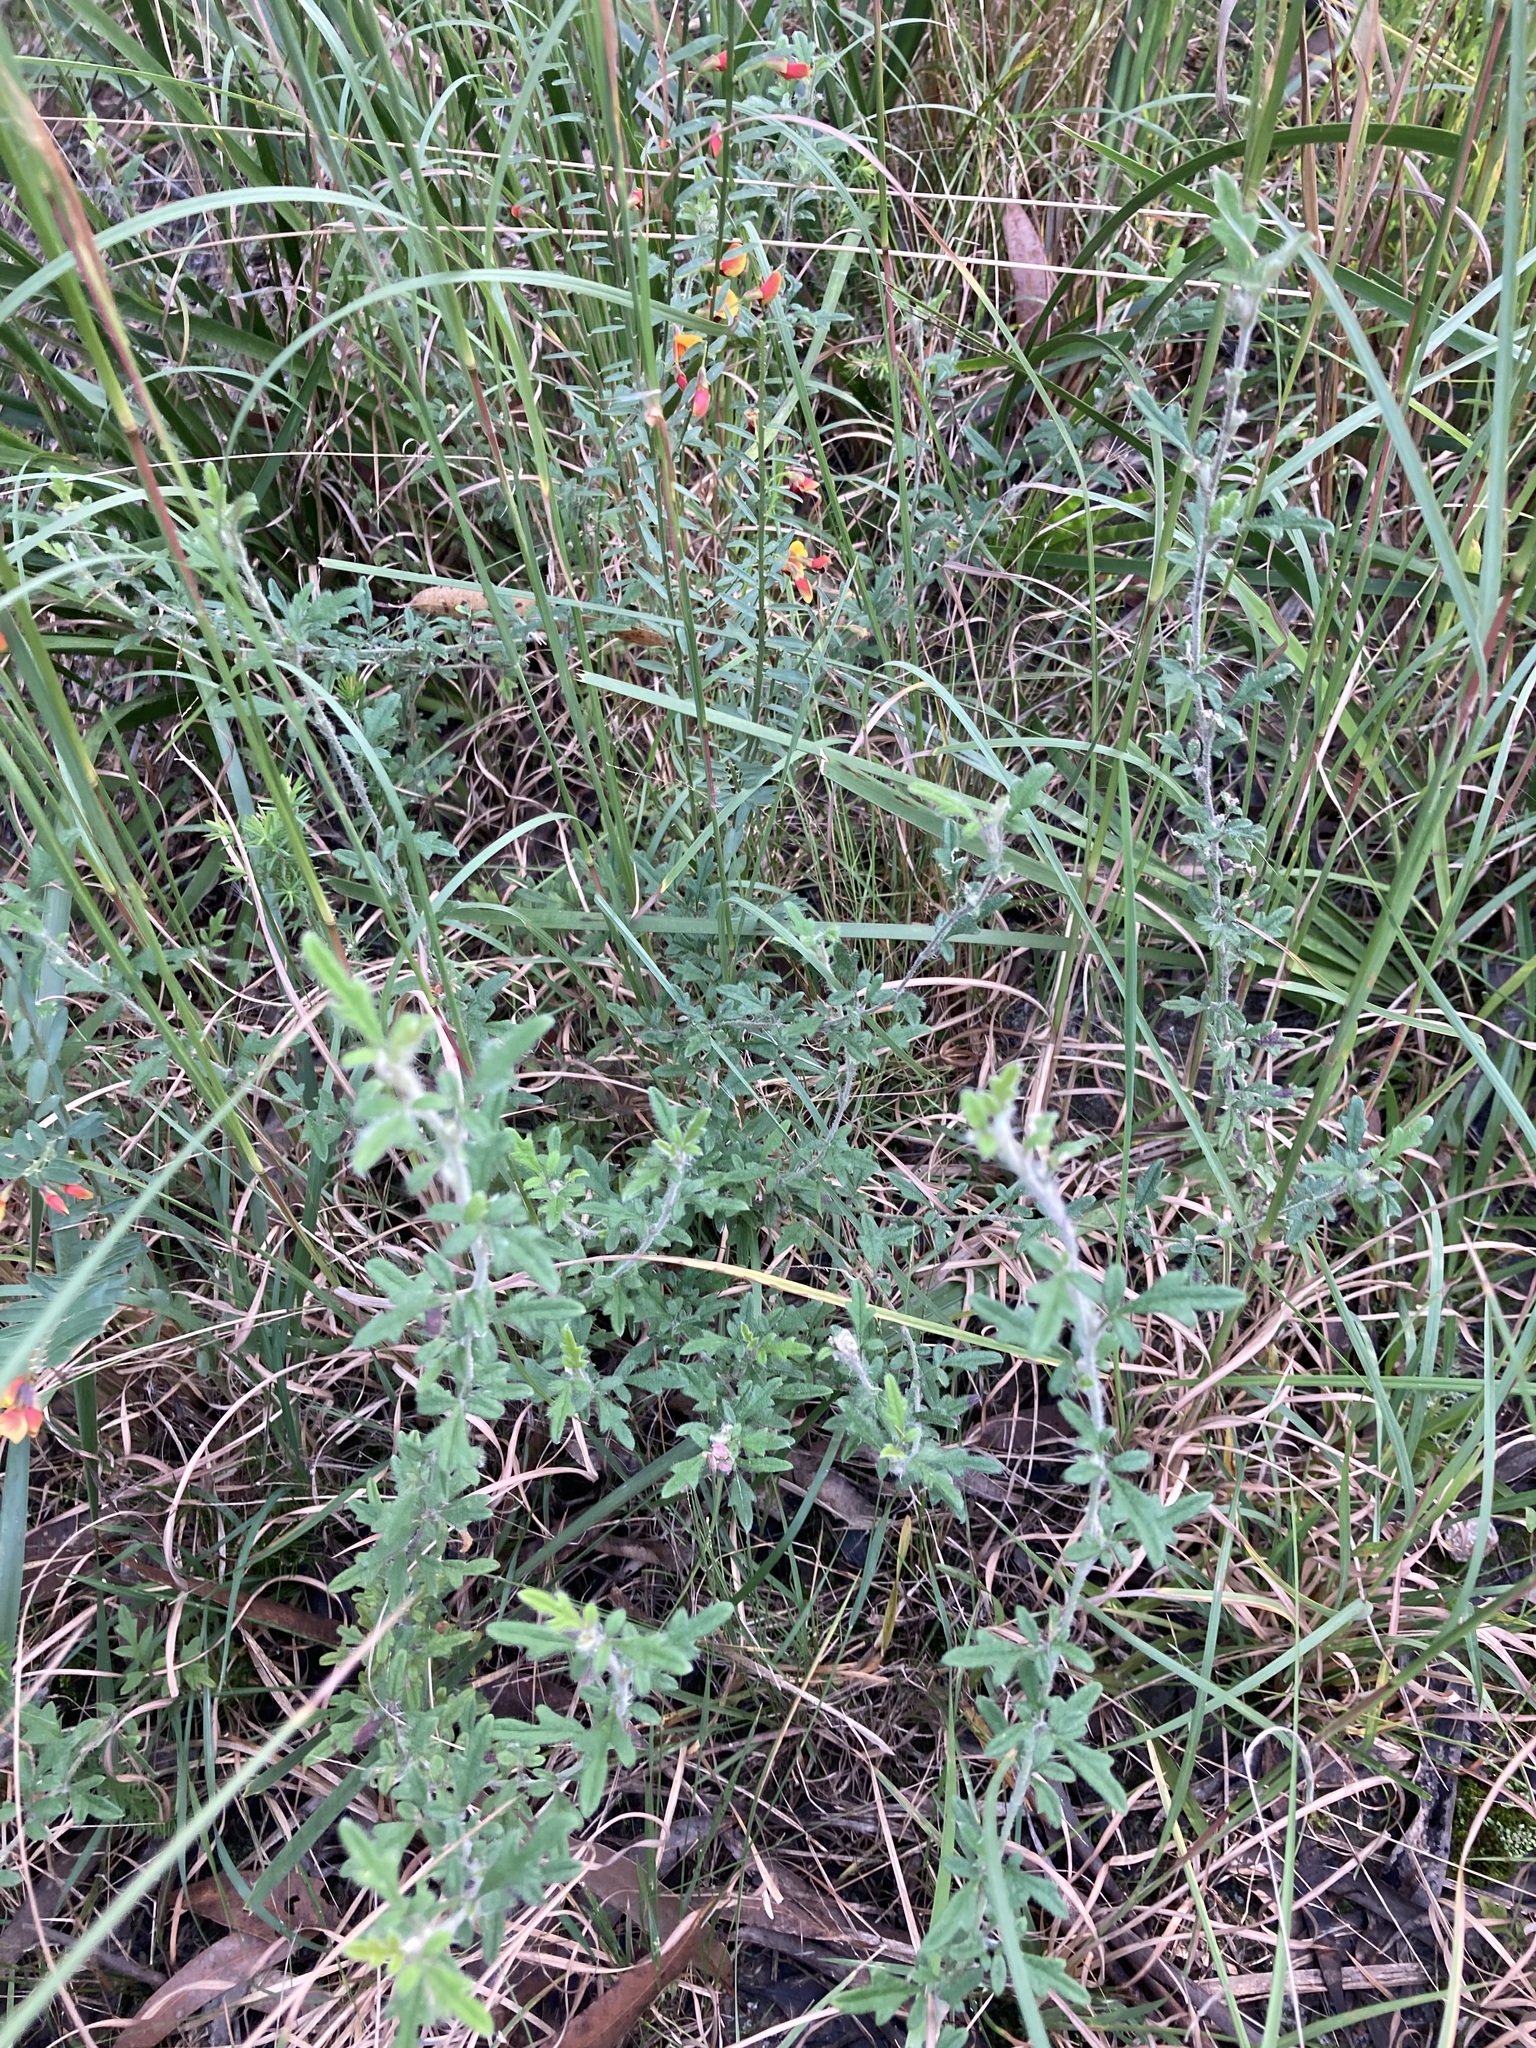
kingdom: Plantae
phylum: Tracheophyta
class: Magnoliopsida
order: Apiales
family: Apiaceae
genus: Xanthosia
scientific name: Xanthosia pilosa
